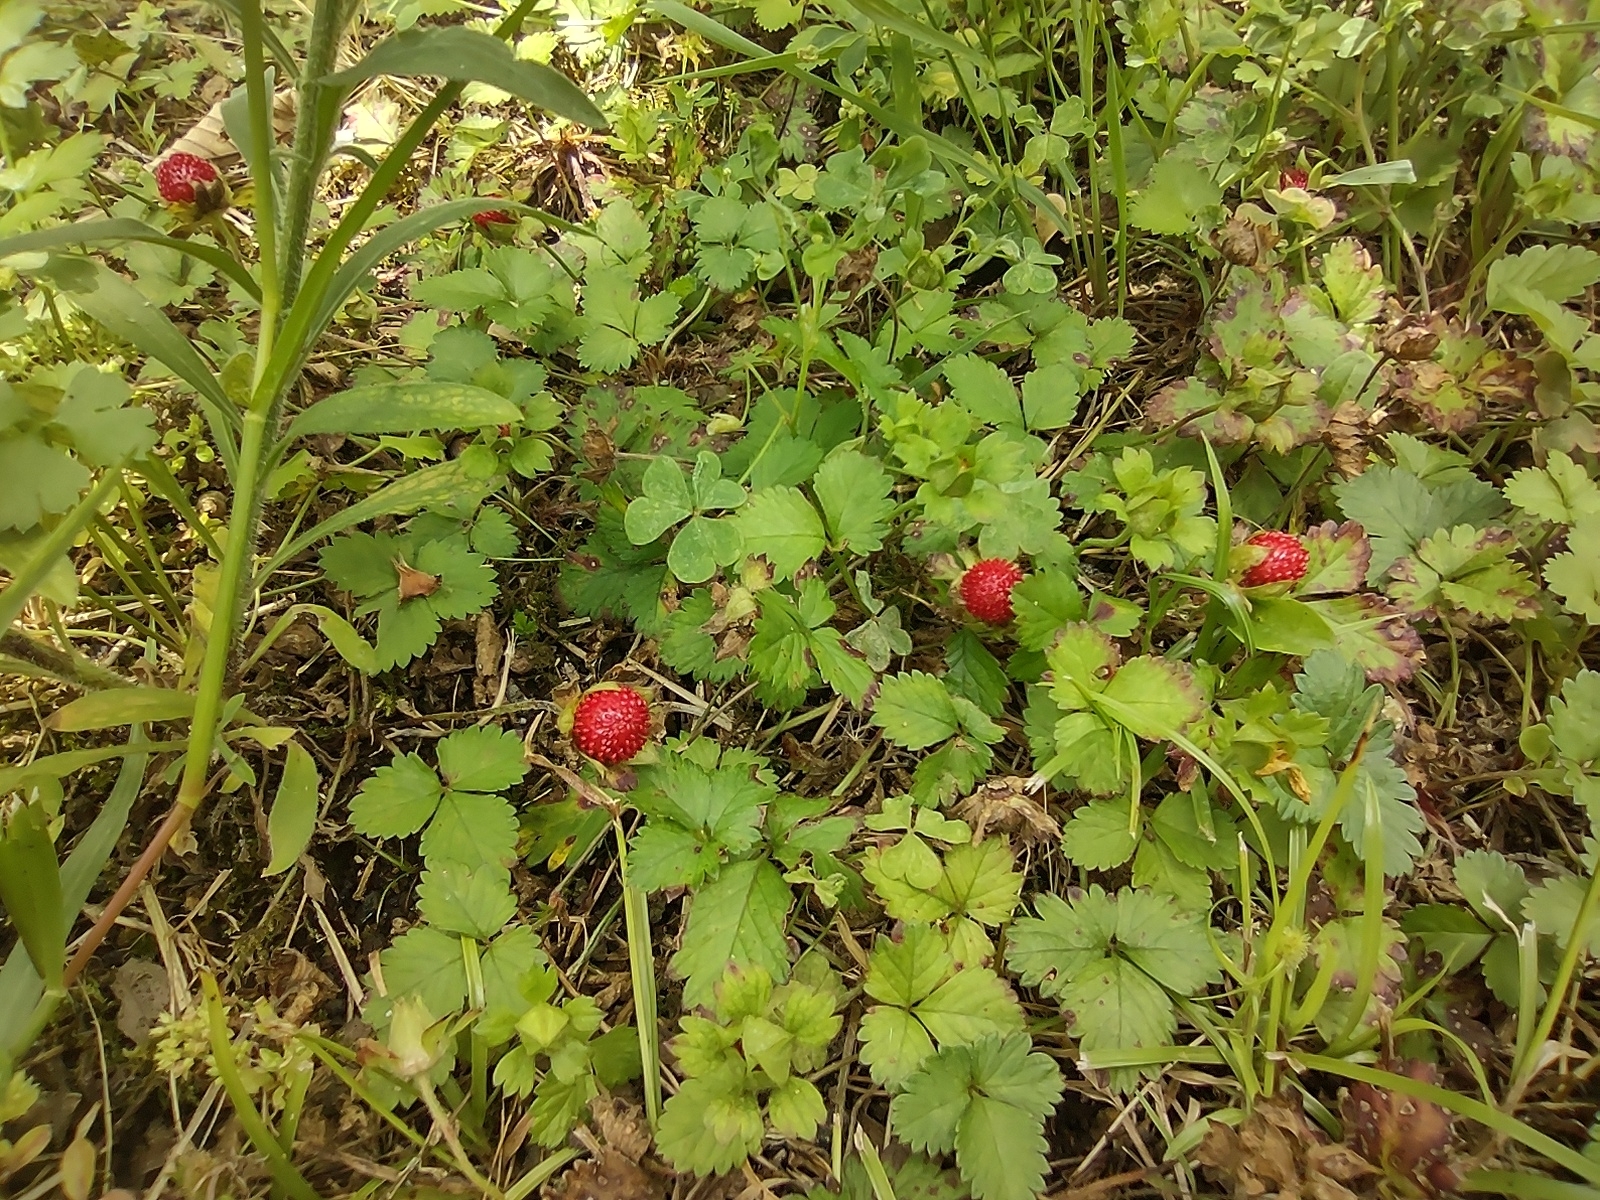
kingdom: Plantae
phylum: Tracheophyta
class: Magnoliopsida
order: Rosales
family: Rosaceae
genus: Potentilla
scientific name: Potentilla indica
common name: Yellow-flowered strawberry
